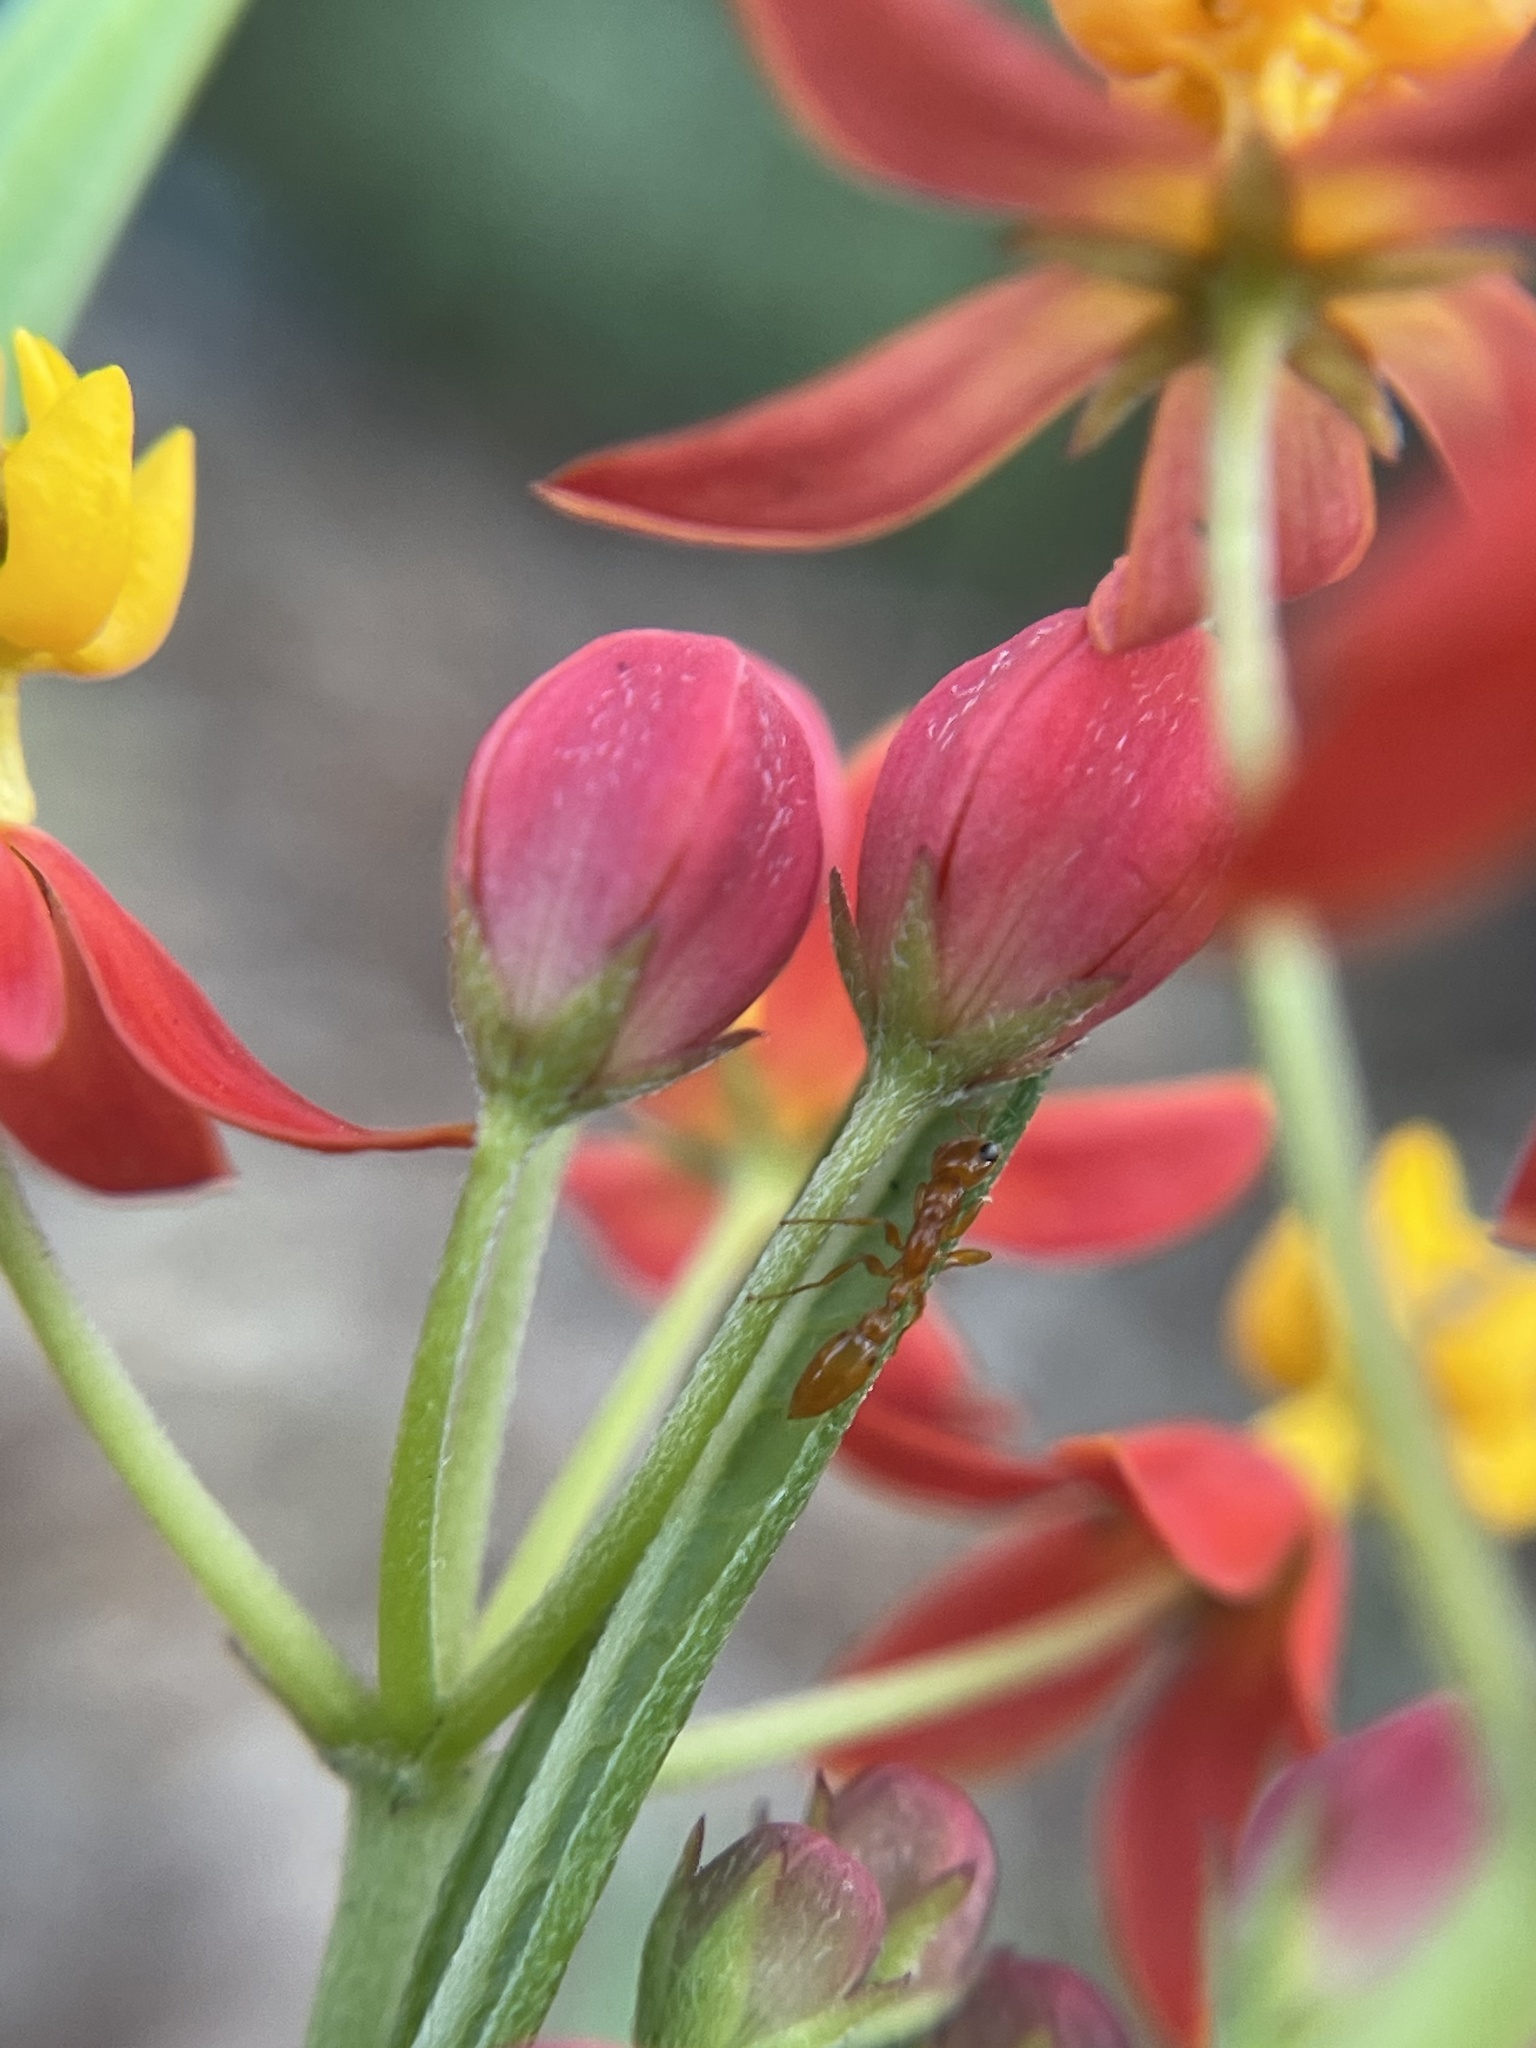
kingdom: Animalia
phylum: Arthropoda
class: Insecta
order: Hymenoptera
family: Formicidae
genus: Pseudomyrmex
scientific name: Pseudomyrmex pallidus
